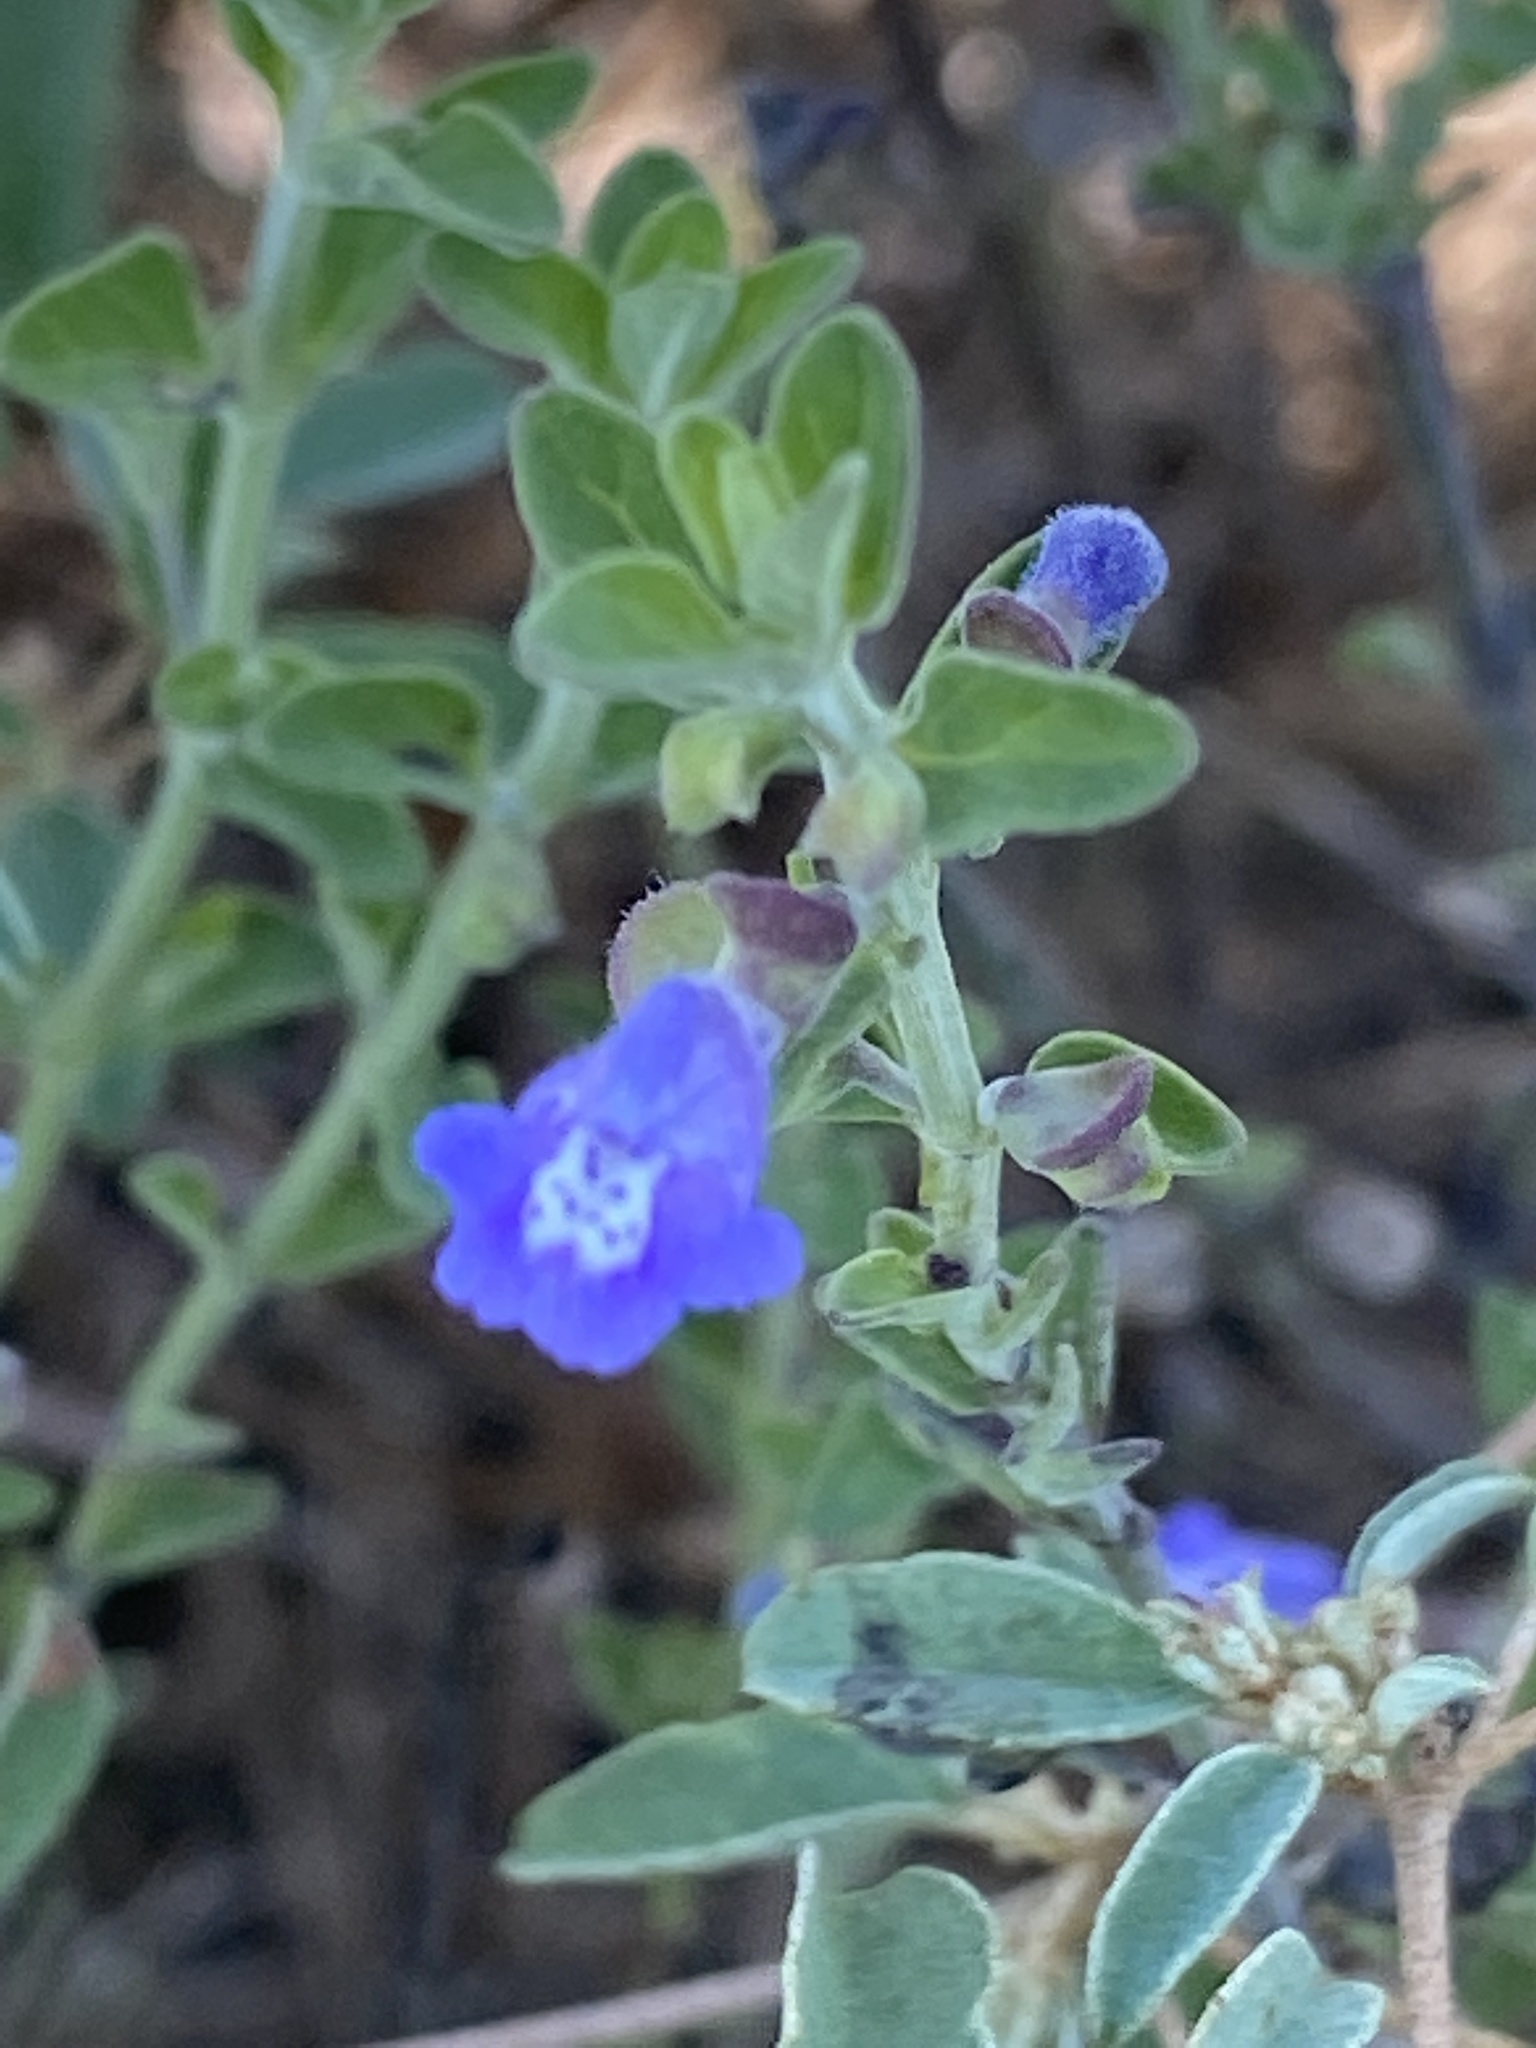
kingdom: Plantae
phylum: Tracheophyta
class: Magnoliopsida
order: Lamiales
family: Lamiaceae
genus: Scutellaria
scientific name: Scutellaria drummondii
